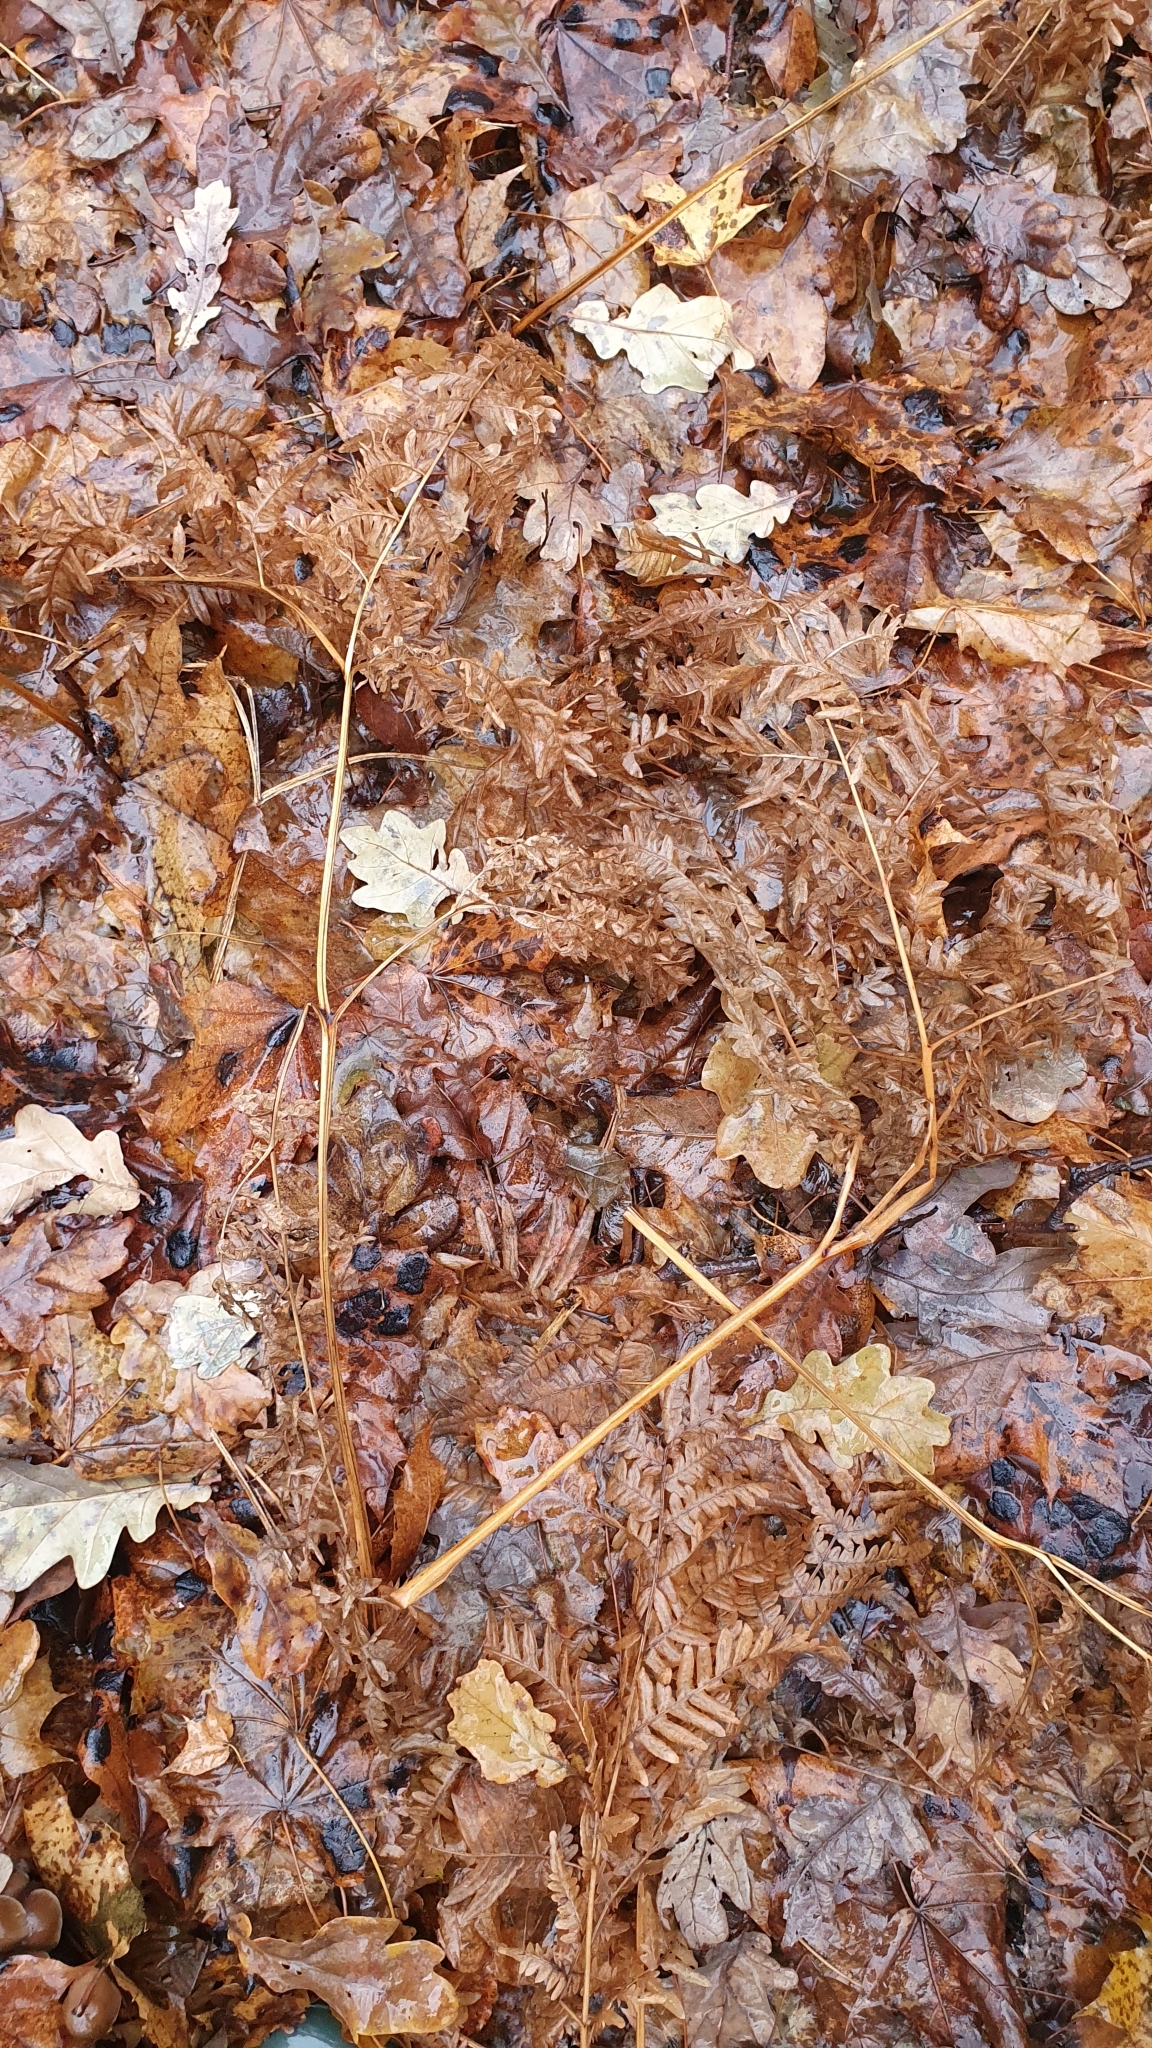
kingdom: Plantae
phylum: Tracheophyta
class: Polypodiopsida
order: Polypodiales
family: Dennstaedtiaceae
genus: Pteridium
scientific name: Pteridium aquilinum
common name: Bracken
